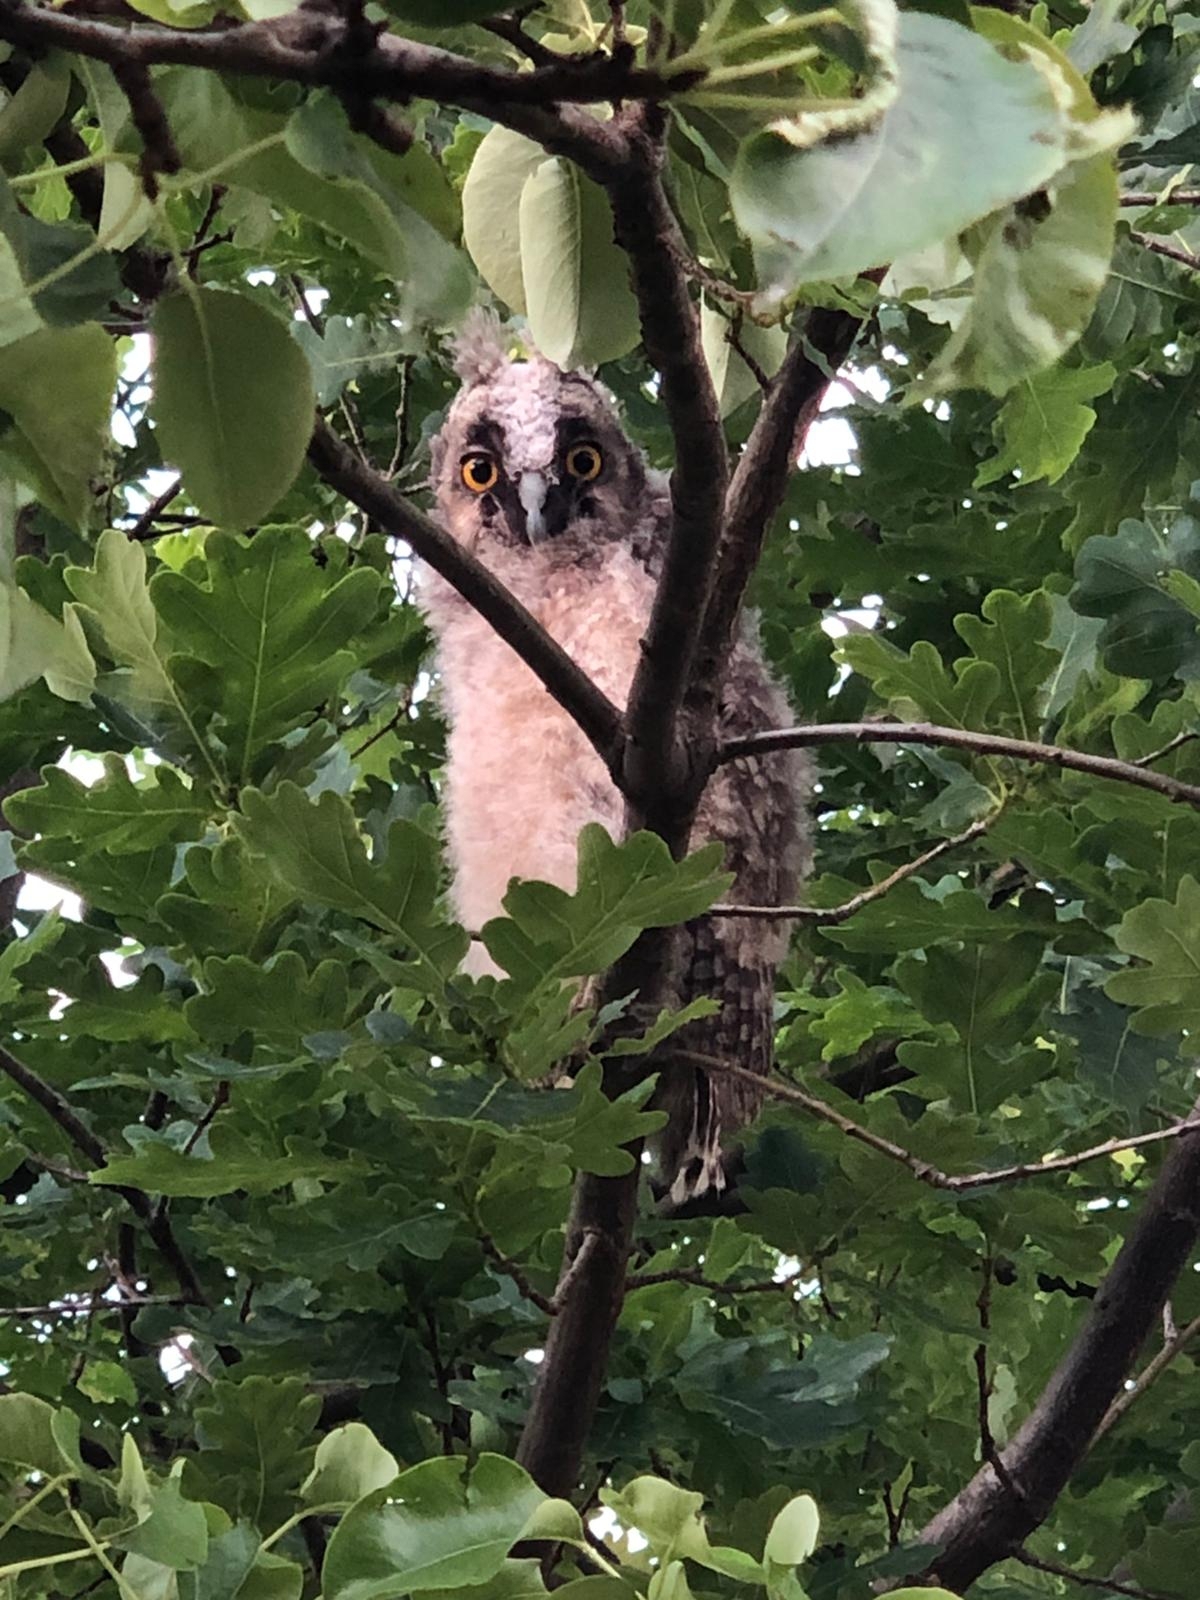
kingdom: Animalia
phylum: Chordata
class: Aves
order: Strigiformes
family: Strigidae
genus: Asio
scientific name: Asio otus
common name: Long-eared owl
